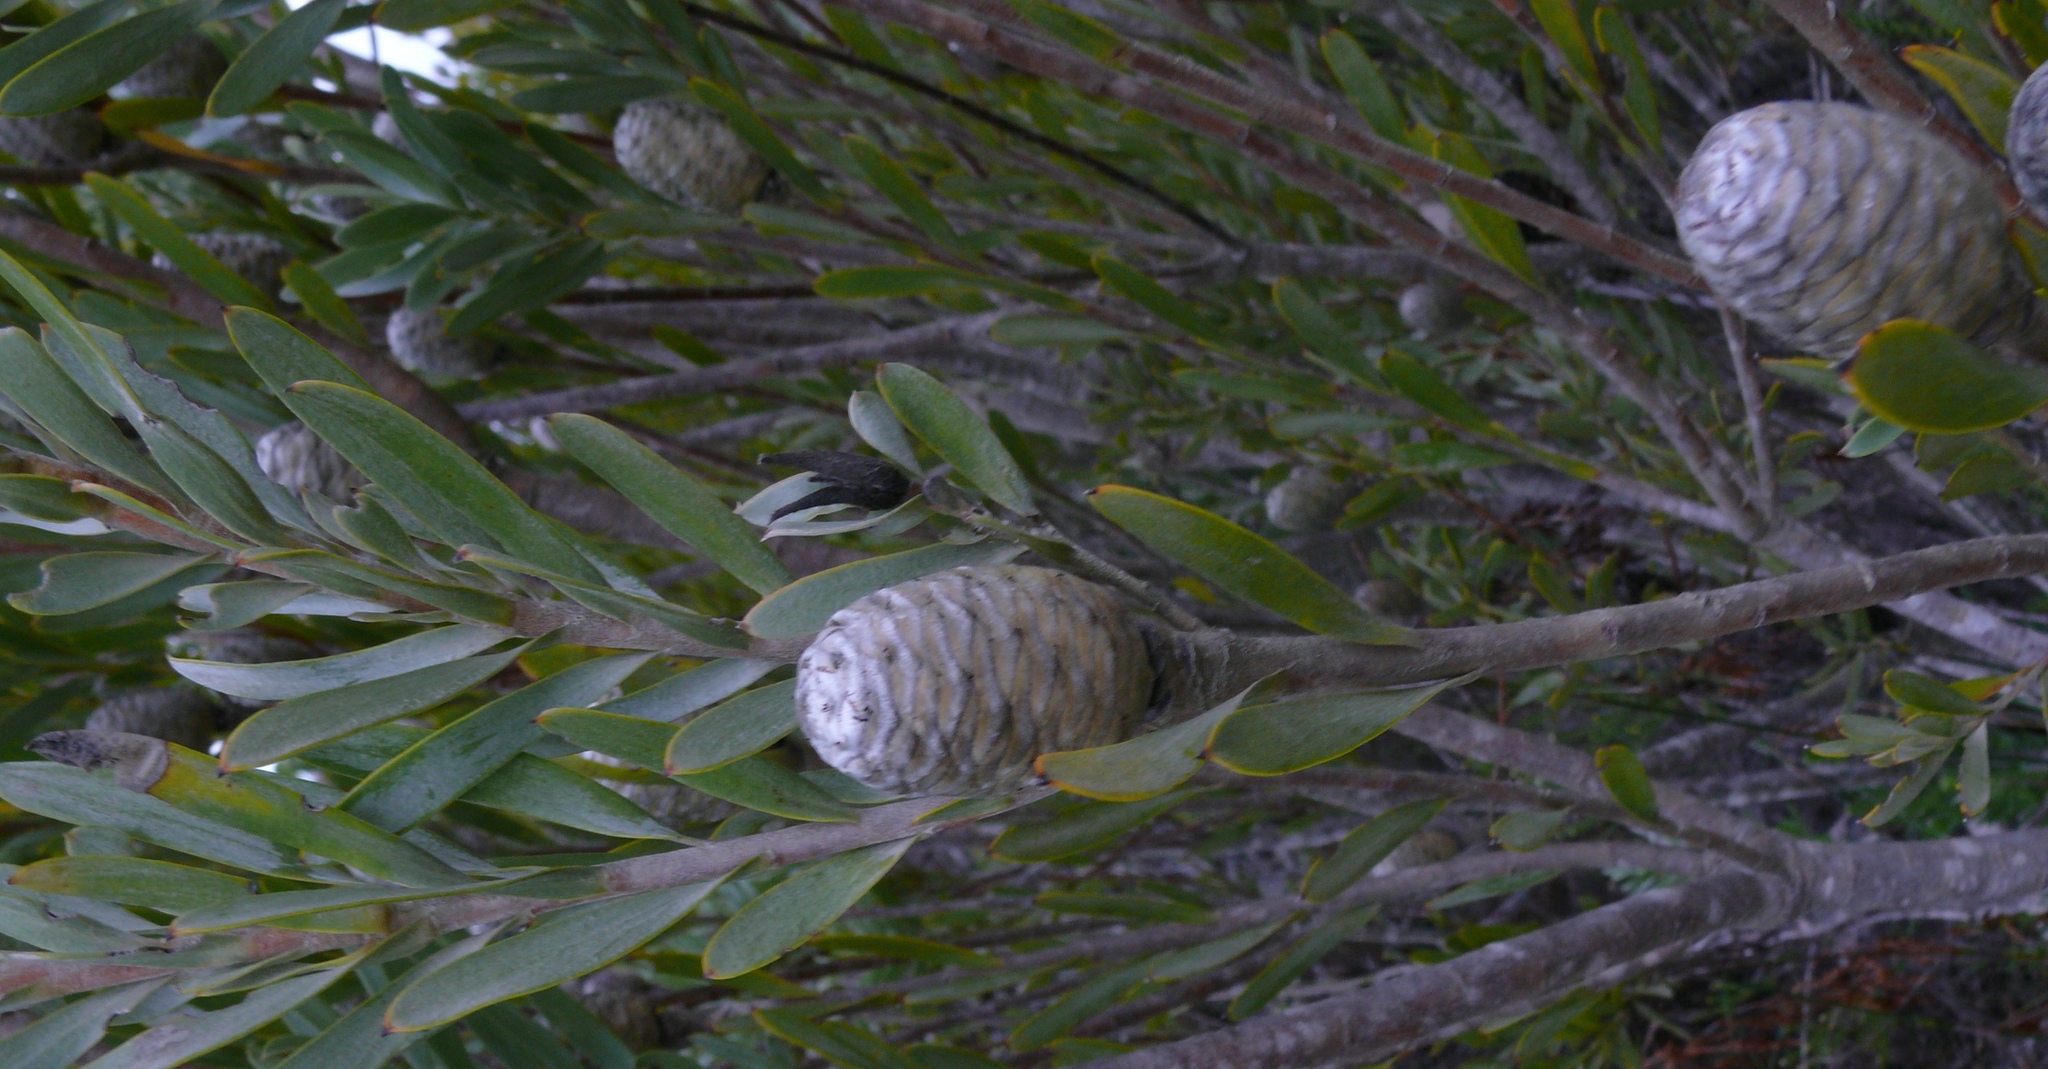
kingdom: Plantae
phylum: Tracheophyta
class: Magnoliopsida
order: Proteales
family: Proteaceae
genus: Leucadendron
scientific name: Leucadendron meridianum
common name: Limestone conebush
